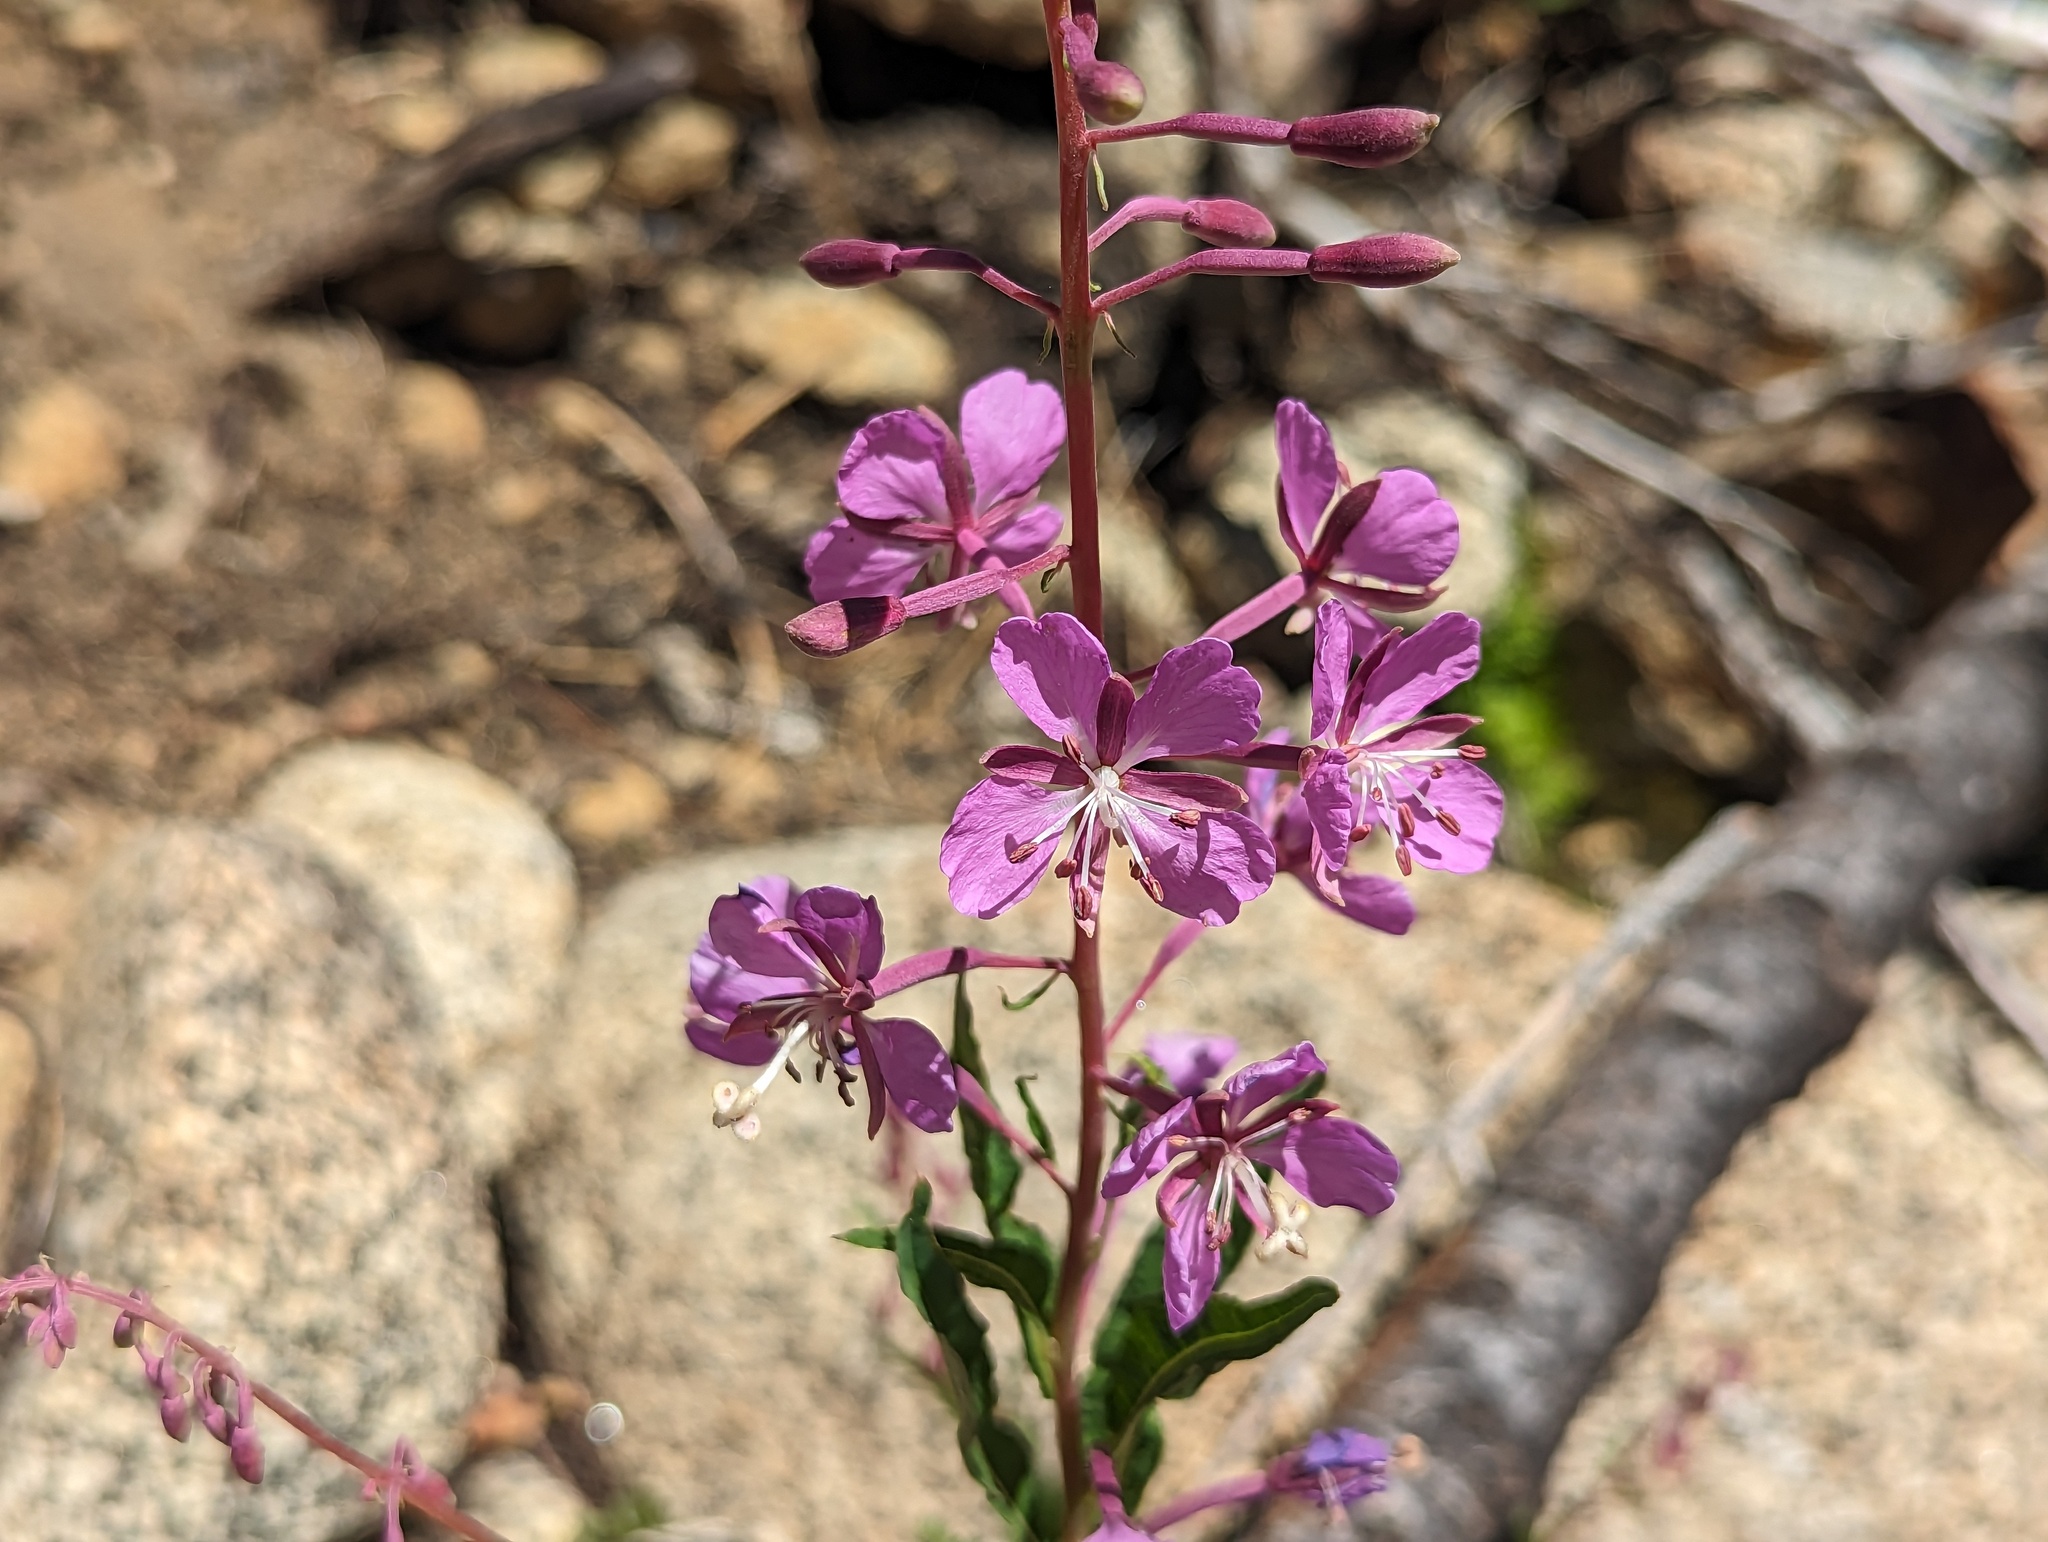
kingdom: Plantae
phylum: Tracheophyta
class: Magnoliopsida
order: Myrtales
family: Onagraceae
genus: Chamaenerion
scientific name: Chamaenerion angustifolium
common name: Fireweed
